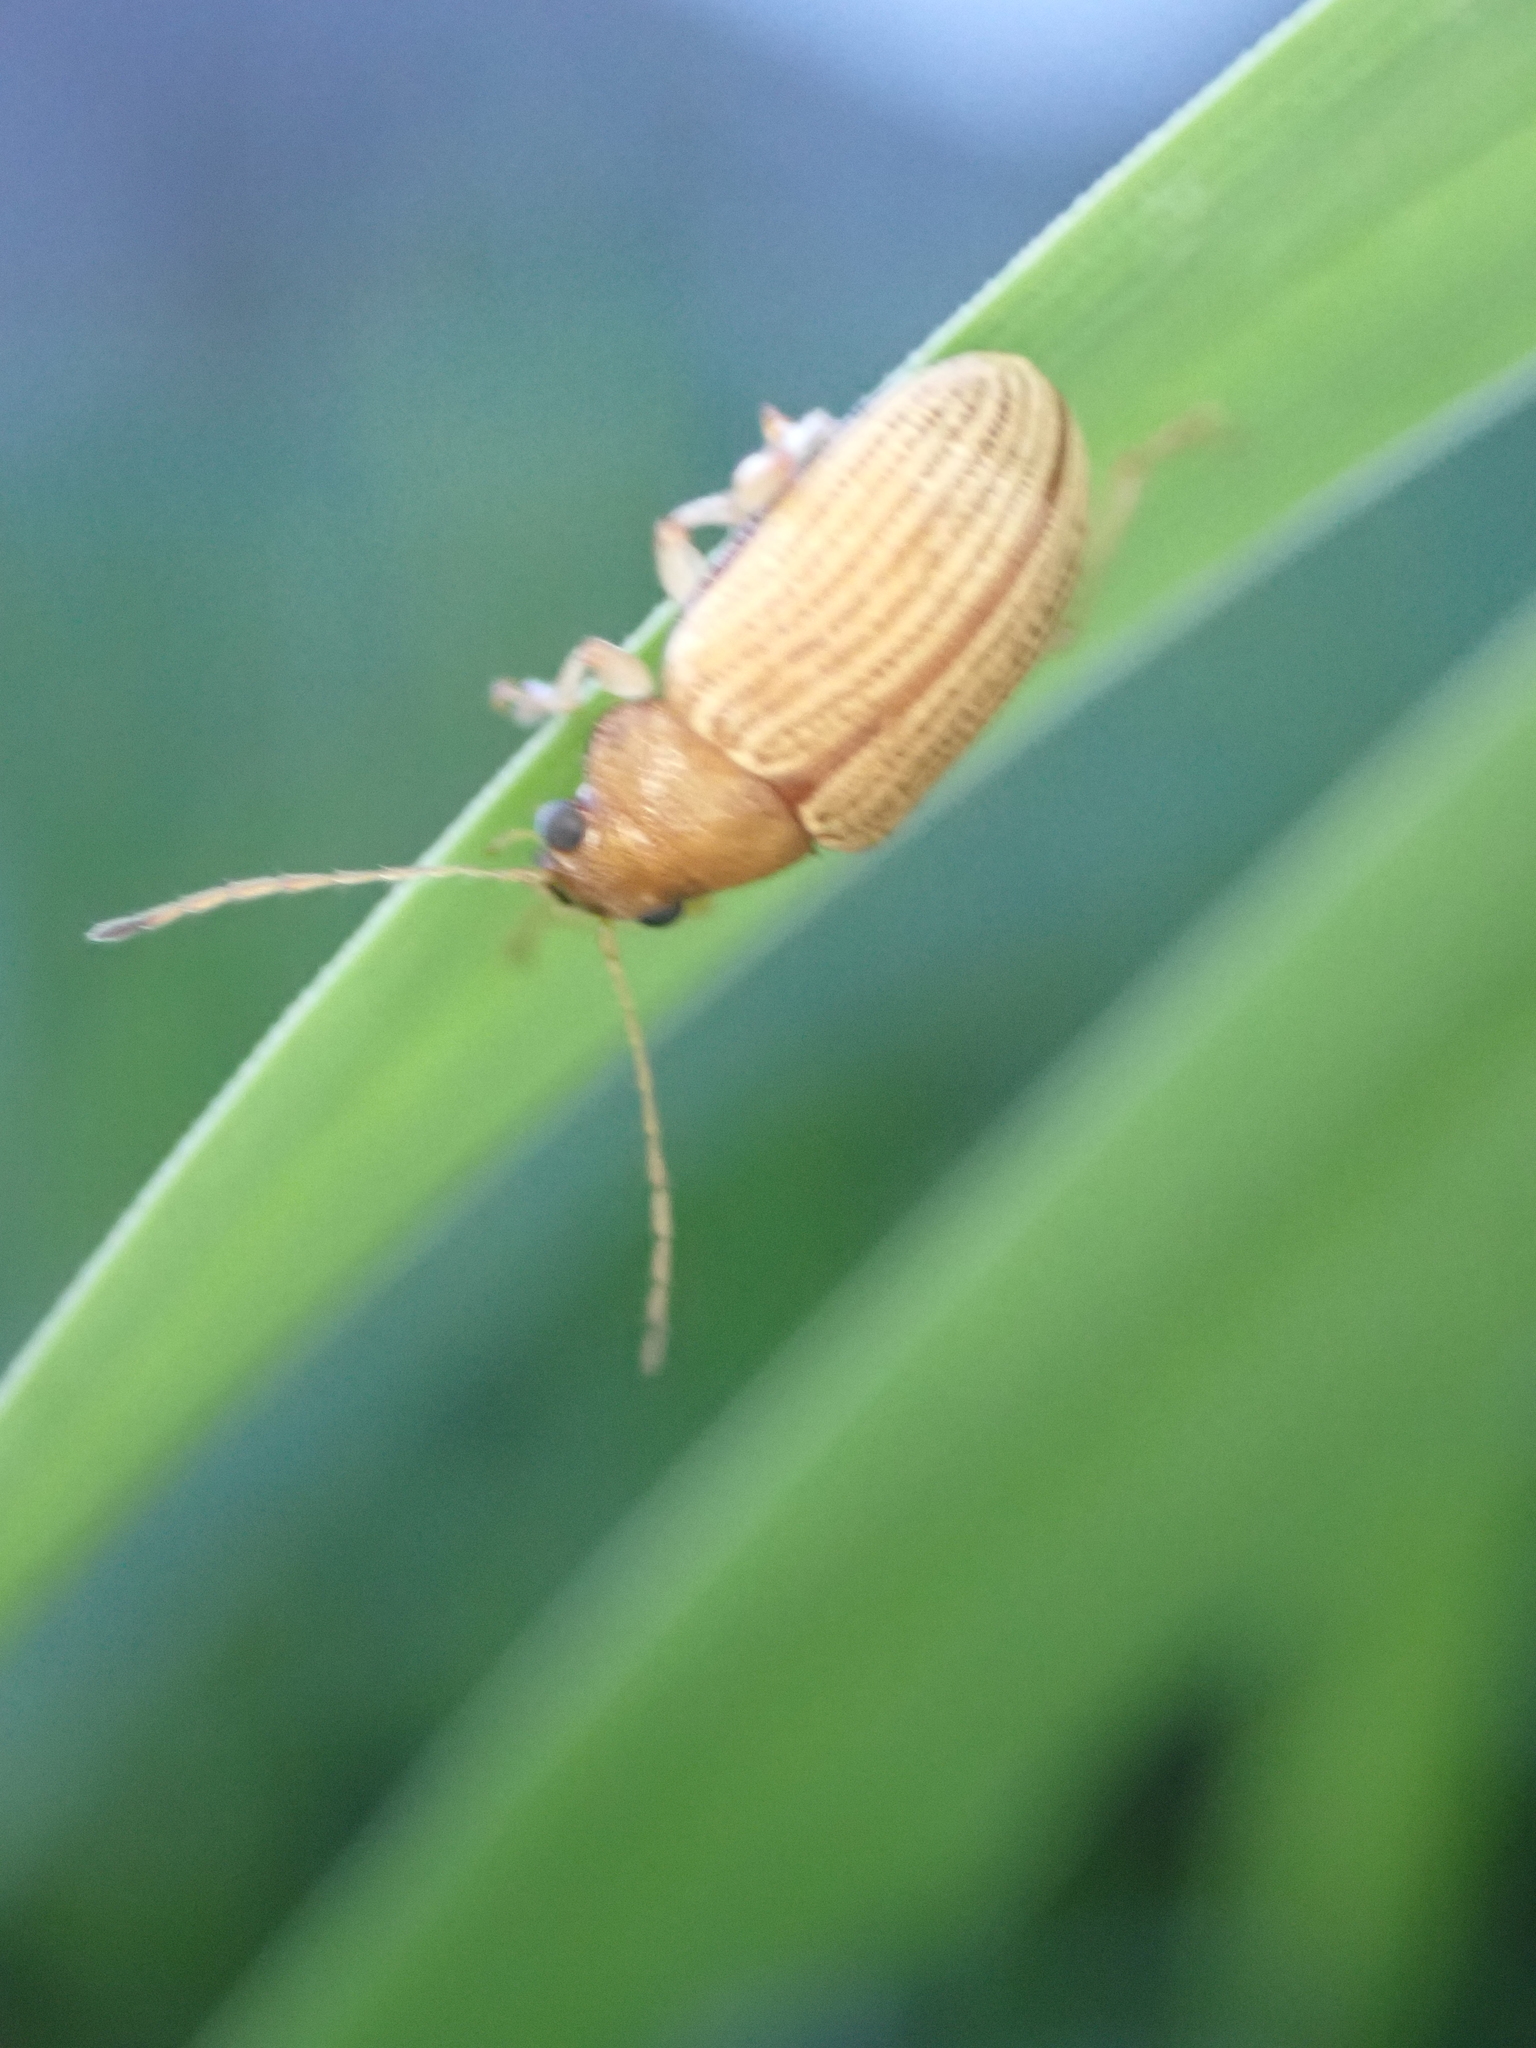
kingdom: Animalia
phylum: Arthropoda
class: Insecta
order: Coleoptera
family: Chrysomelidae
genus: Colaspis
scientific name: Colaspis brunnea
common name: Grape colaspis
